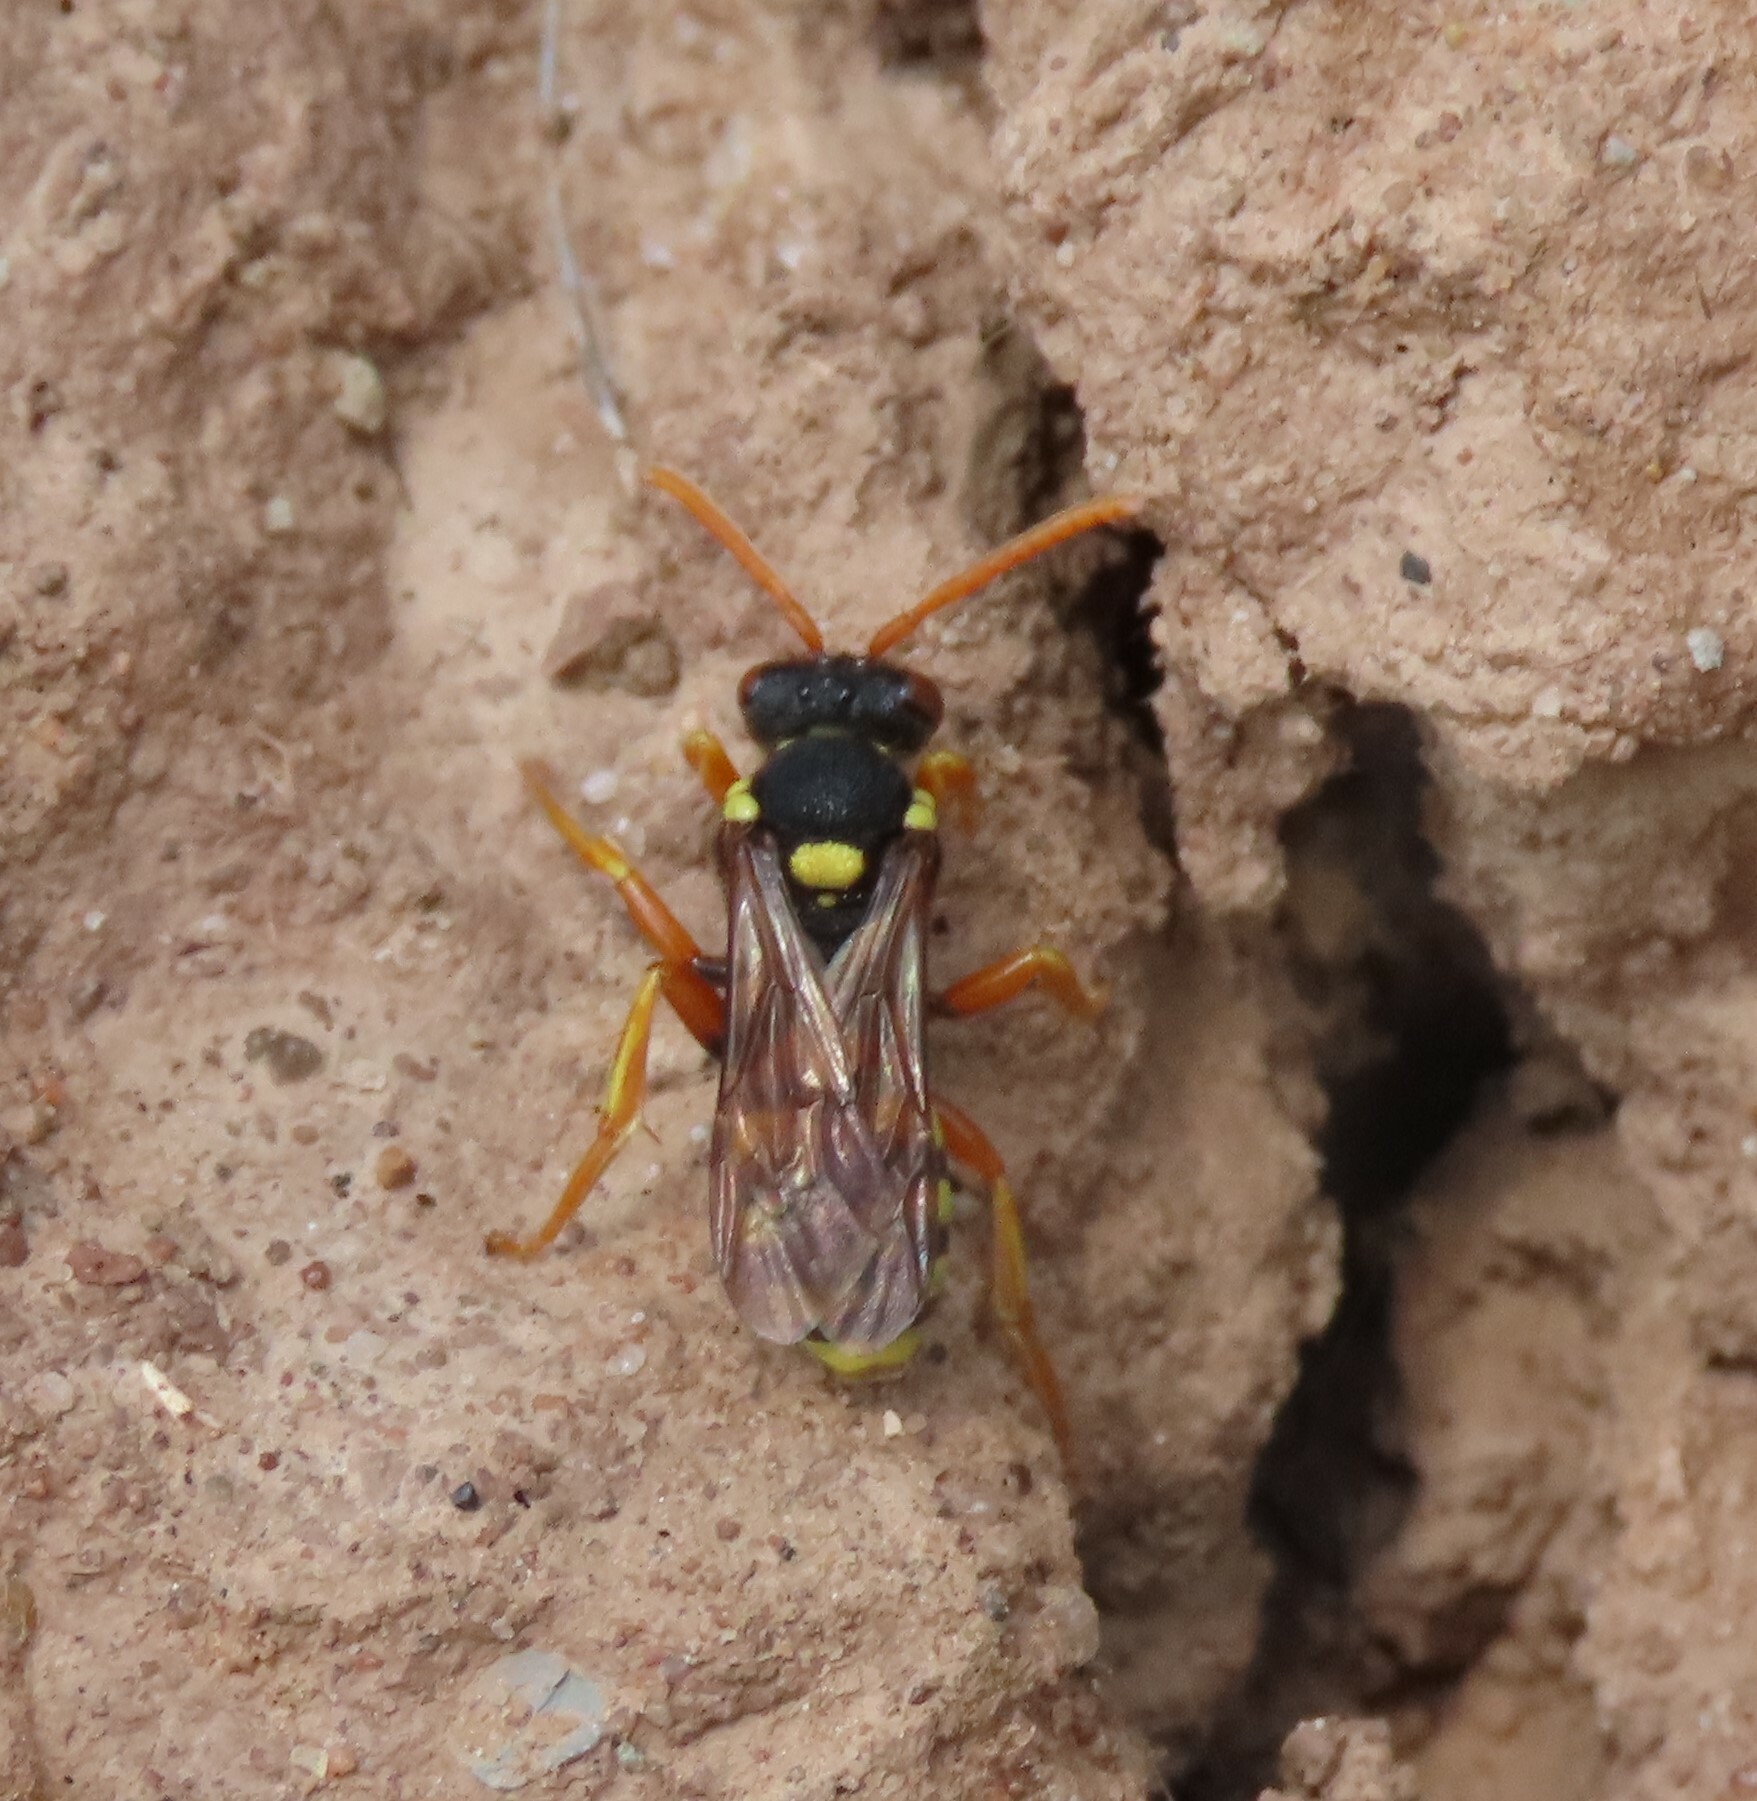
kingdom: Animalia
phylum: Arthropoda
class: Insecta
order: Hymenoptera
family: Apidae
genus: Nomada
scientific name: Nomada fucata
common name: Painted nomad bee
